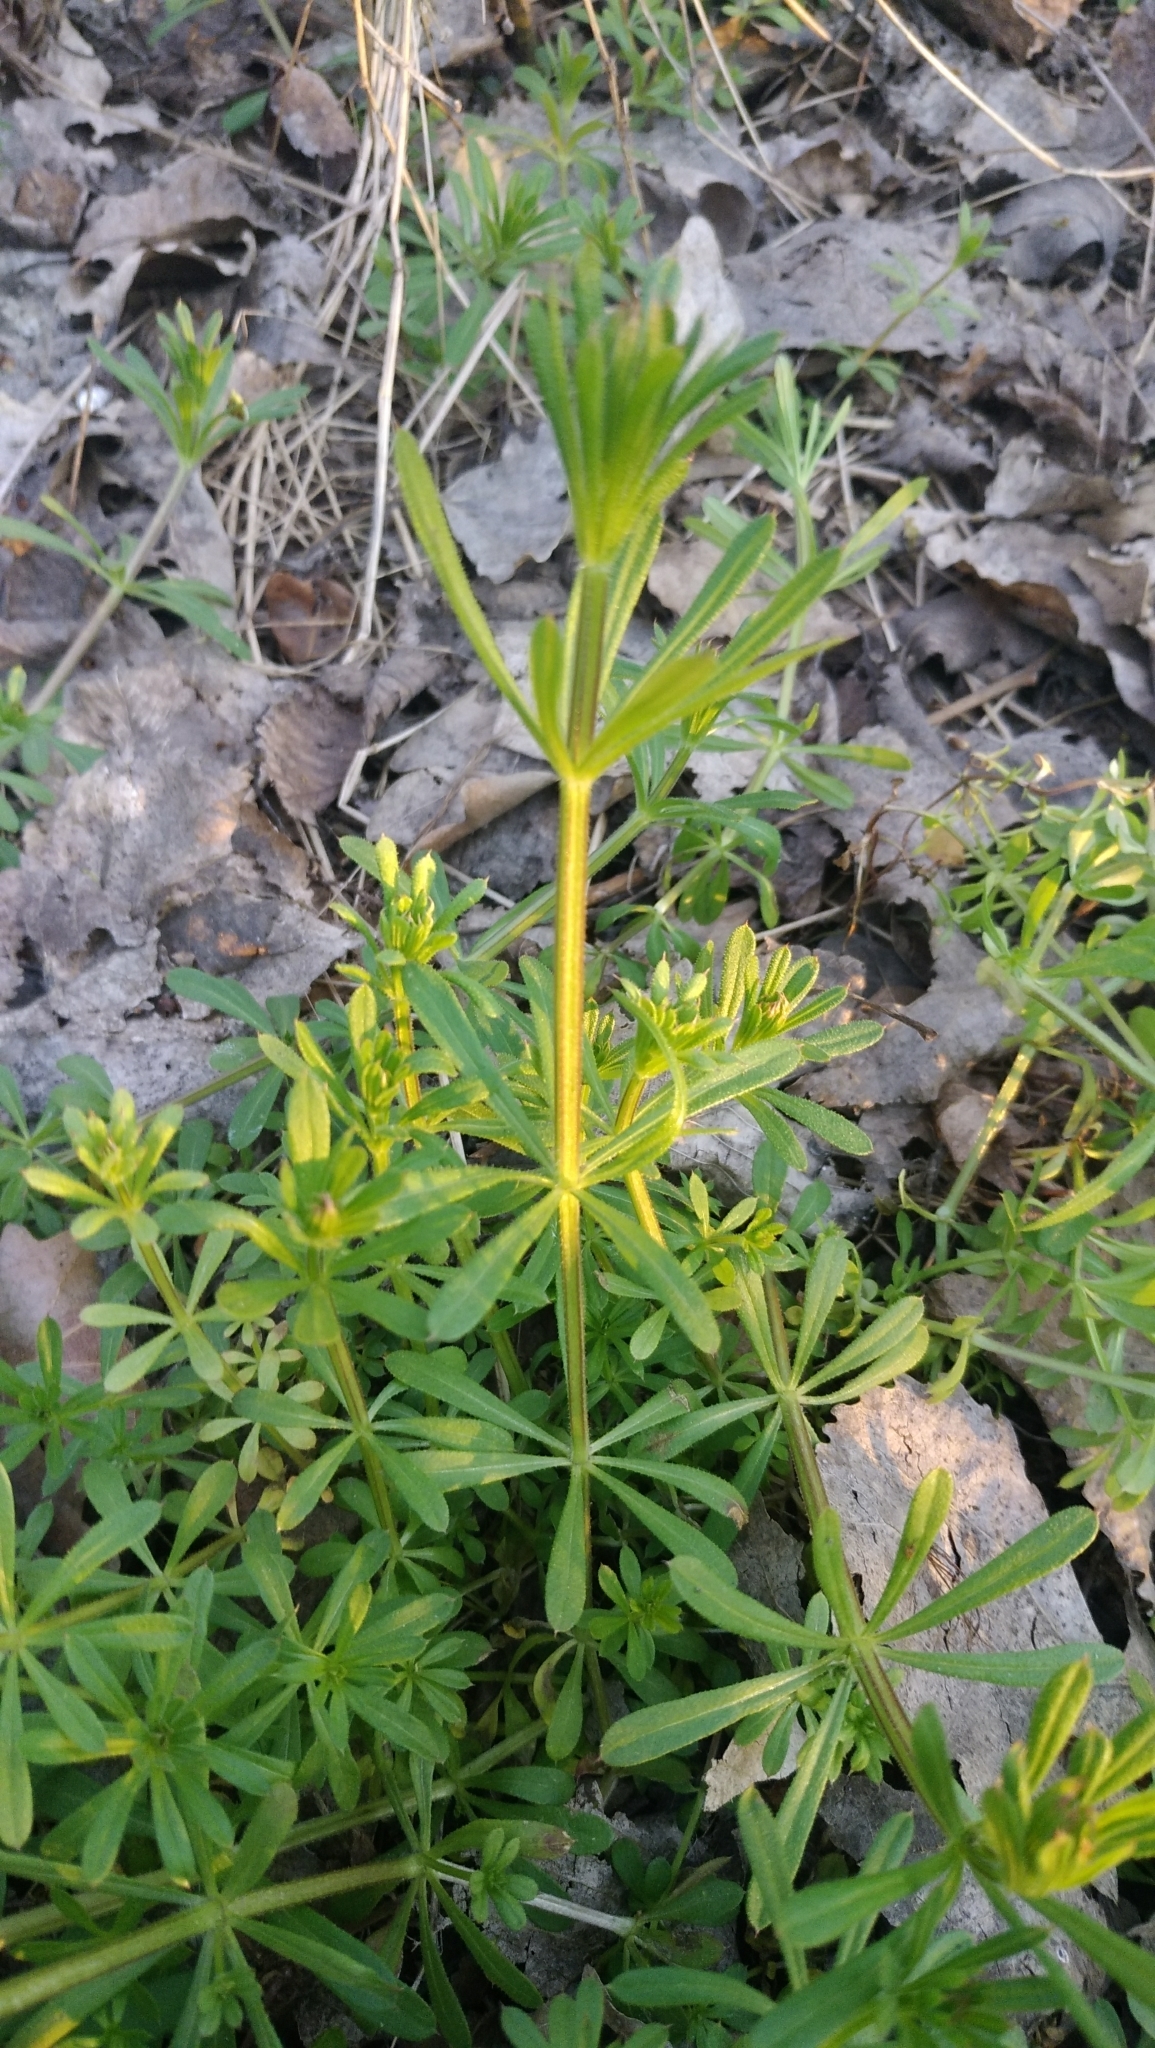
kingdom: Plantae
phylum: Tracheophyta
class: Magnoliopsida
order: Gentianales
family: Rubiaceae
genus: Galium
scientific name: Galium aparine
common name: Cleavers
